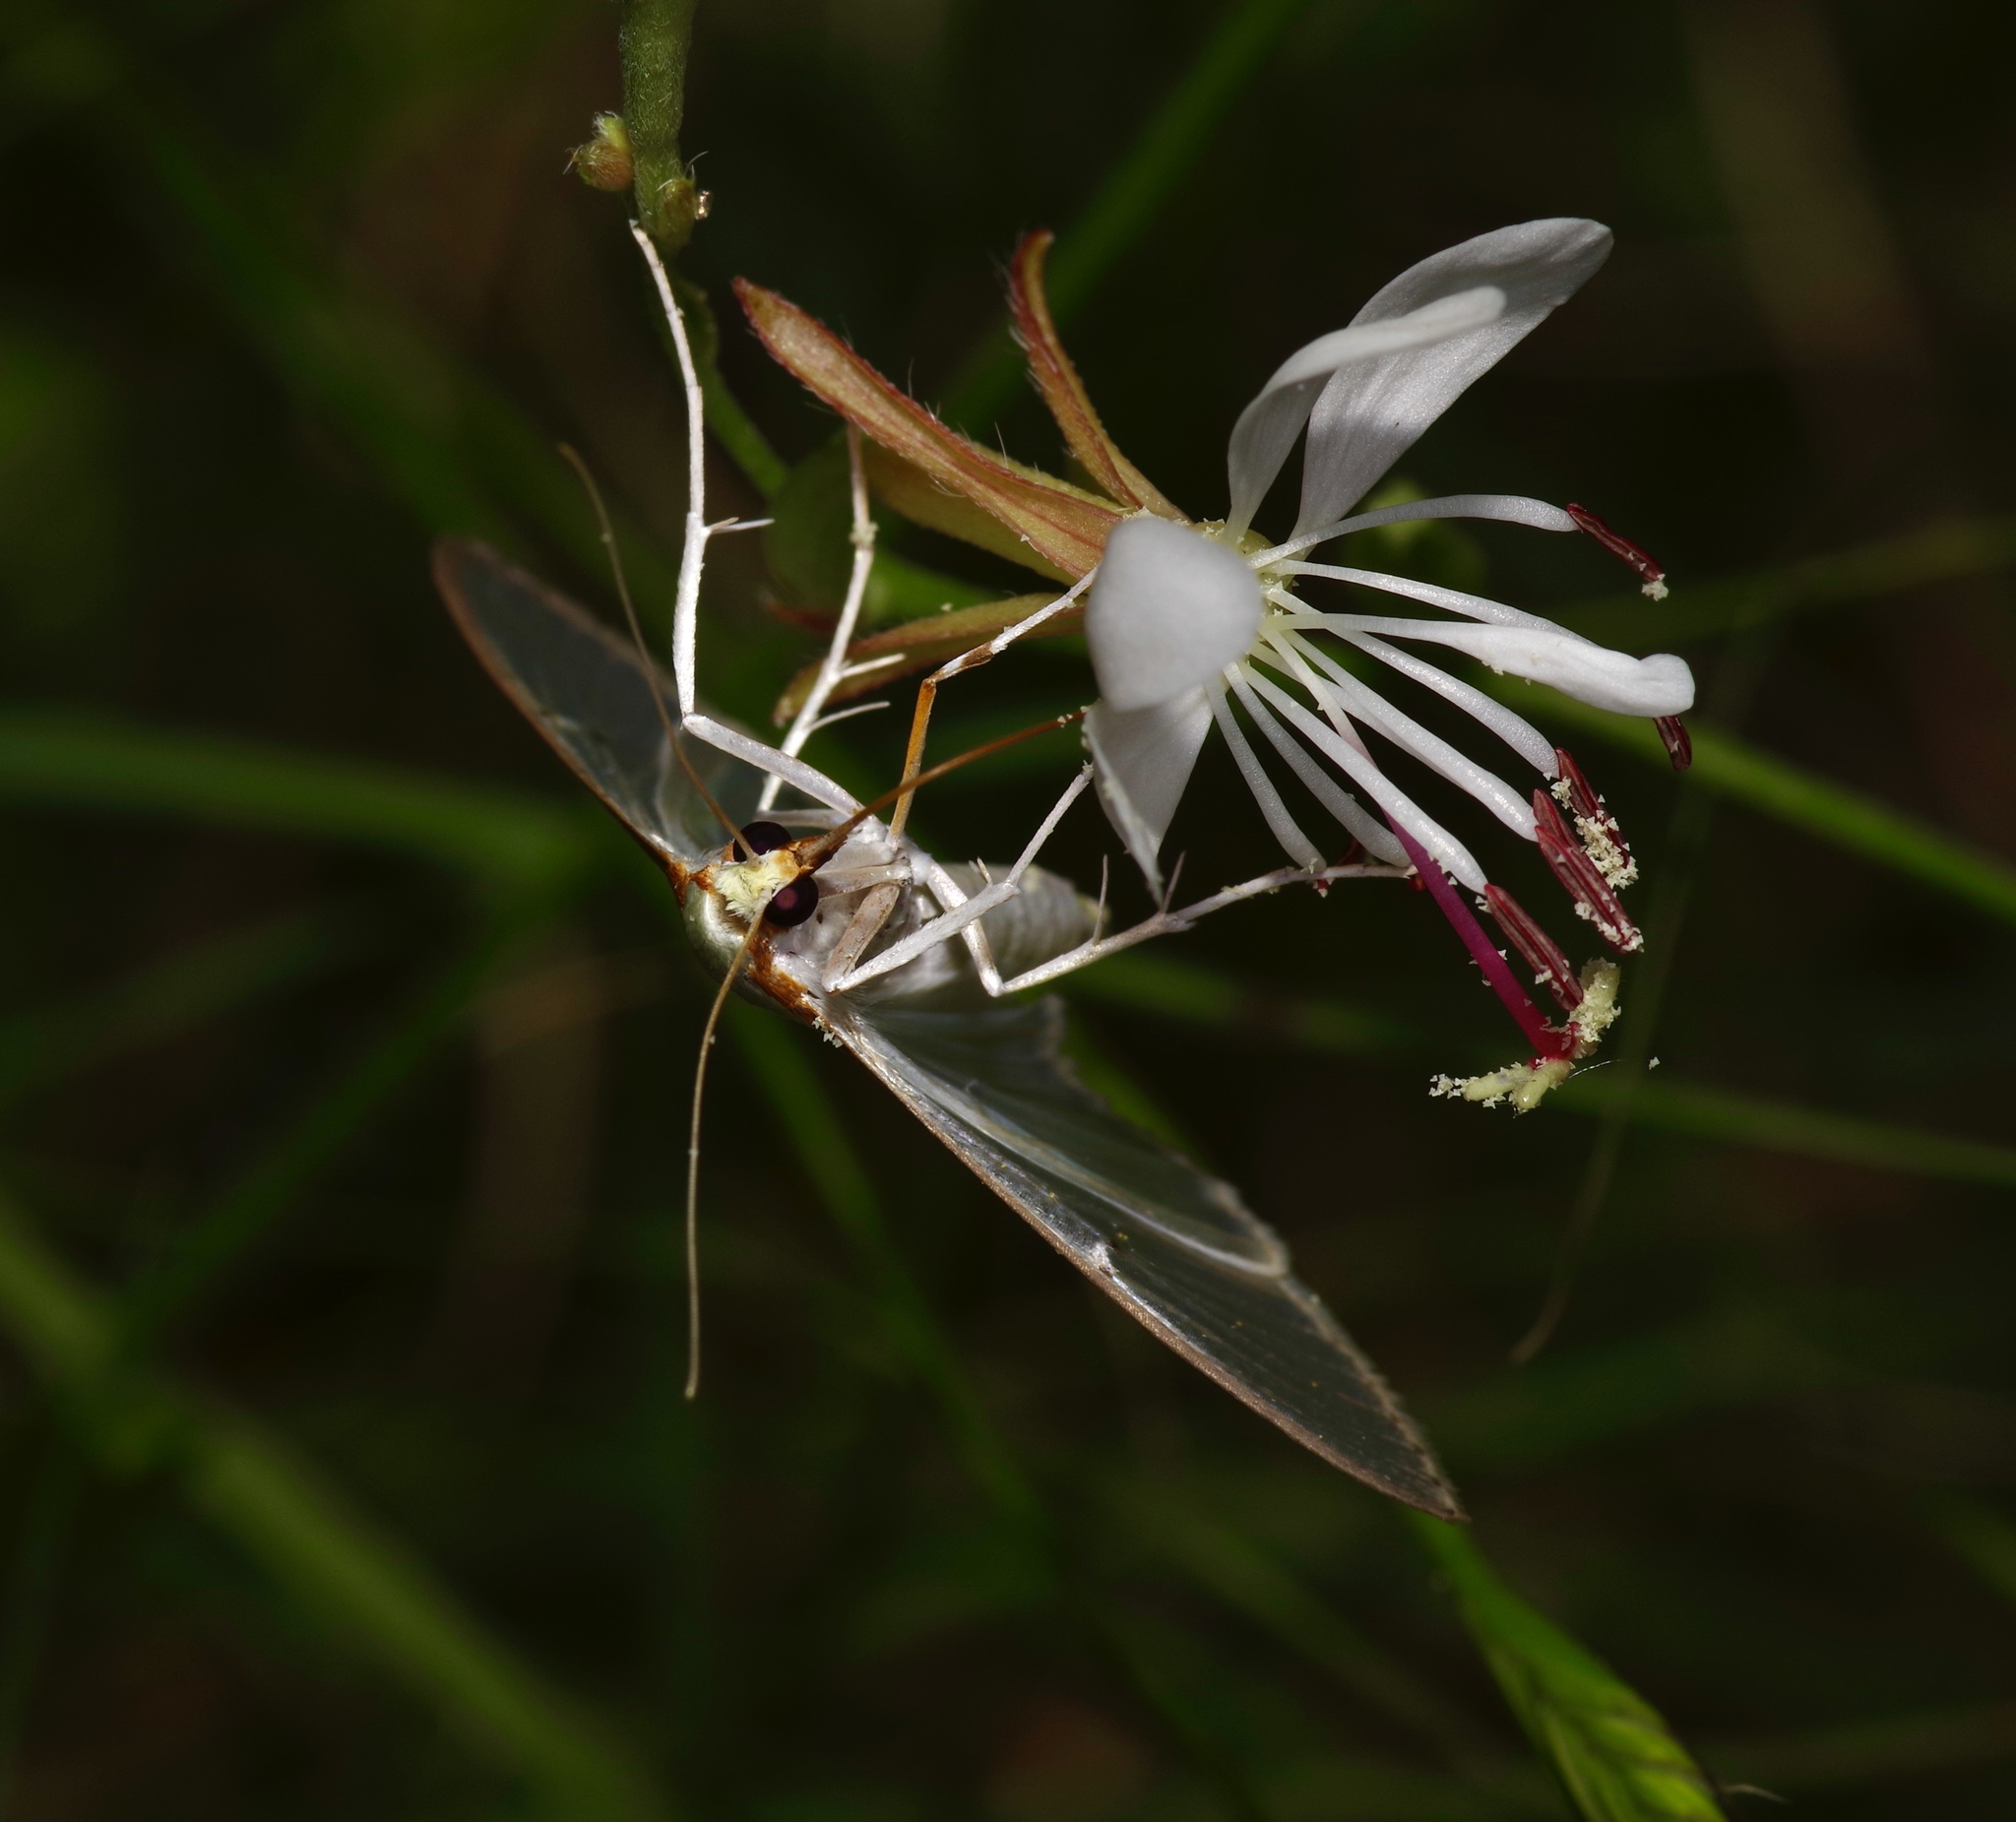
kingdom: Animalia
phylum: Arthropoda
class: Insecta
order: Lepidoptera
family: Crambidae
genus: Palpita
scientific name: Palpita quadristigmalis
